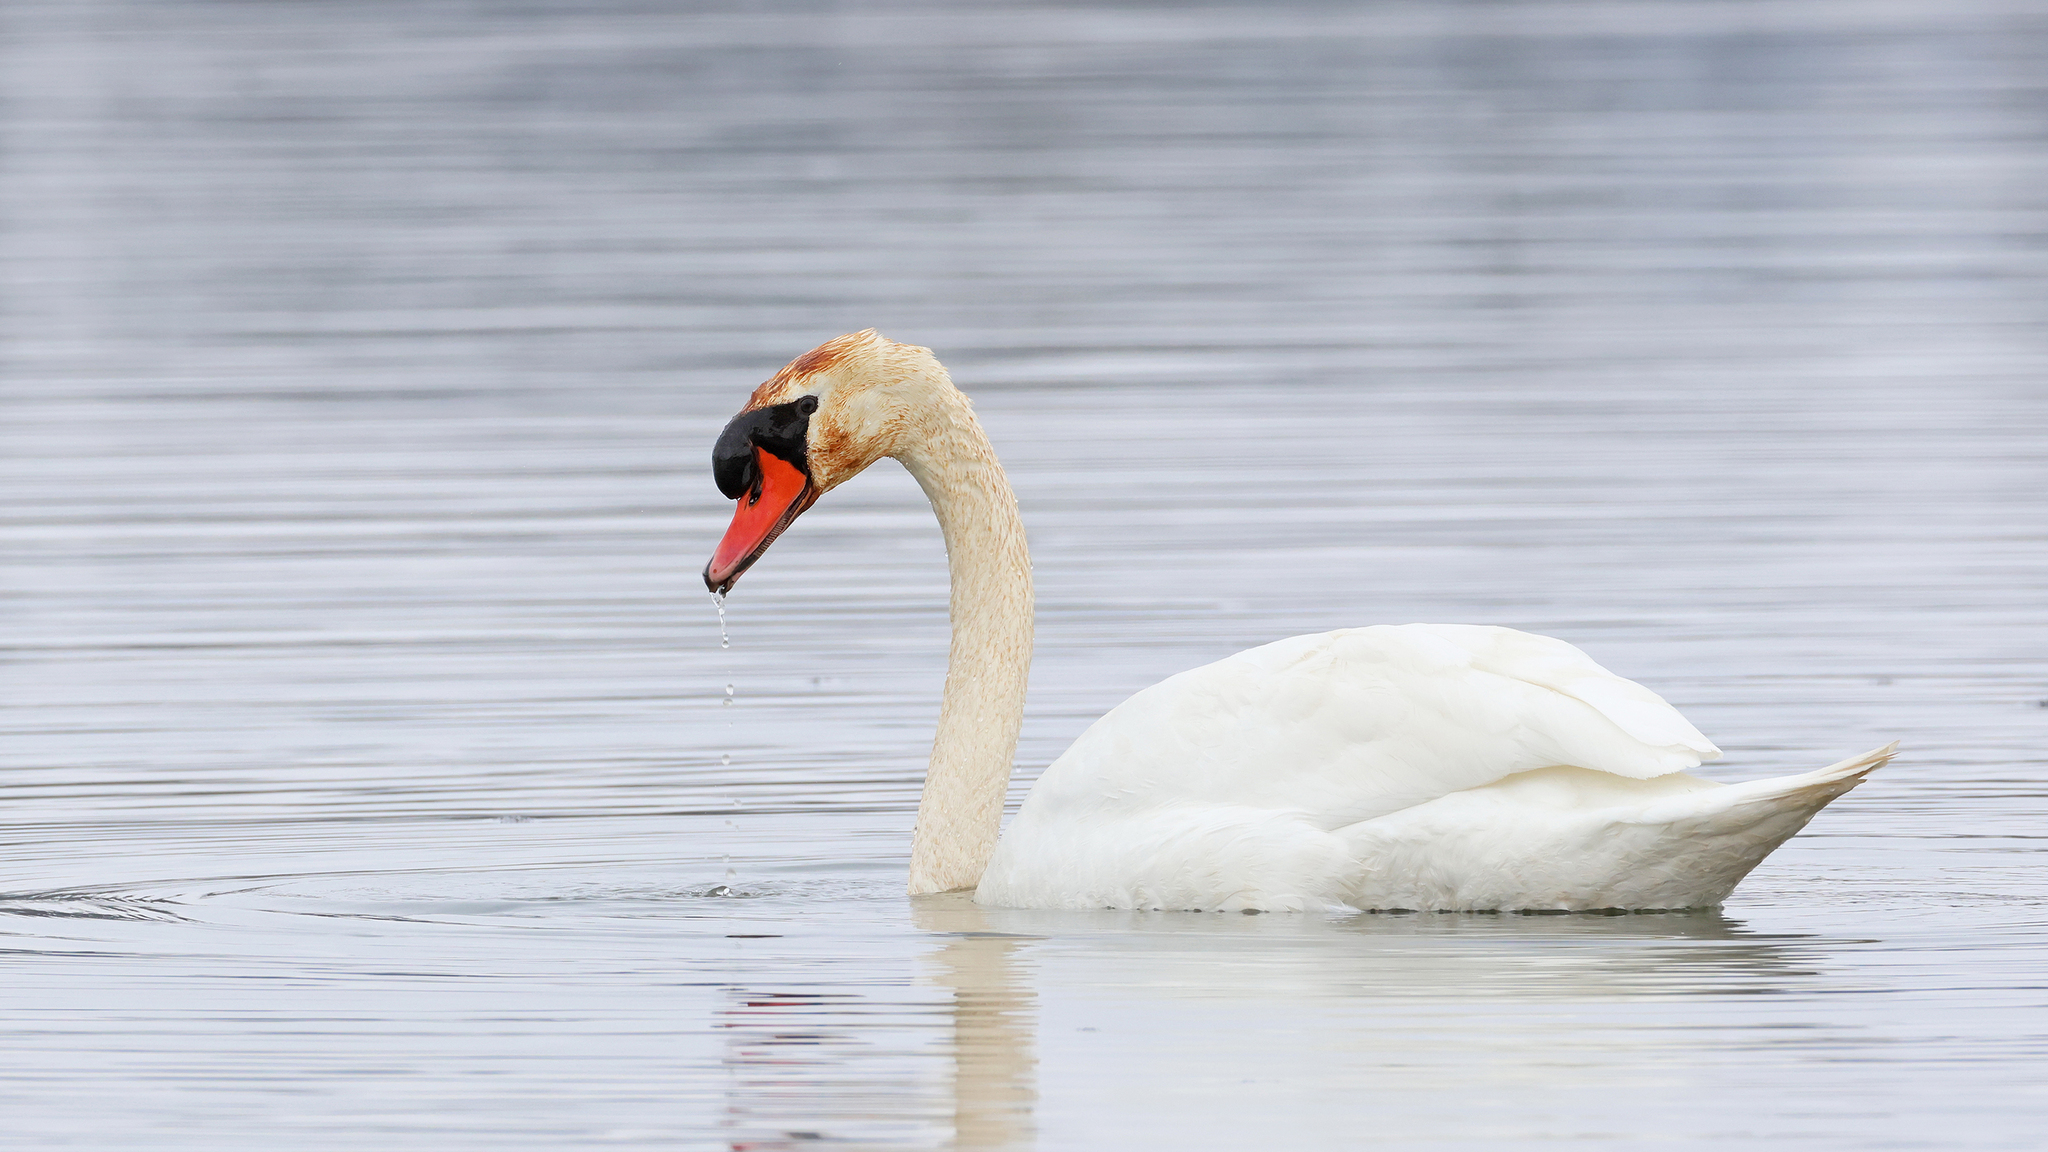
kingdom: Animalia
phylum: Chordata
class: Aves
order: Anseriformes
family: Anatidae
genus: Cygnus
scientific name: Cygnus olor
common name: Mute swan
